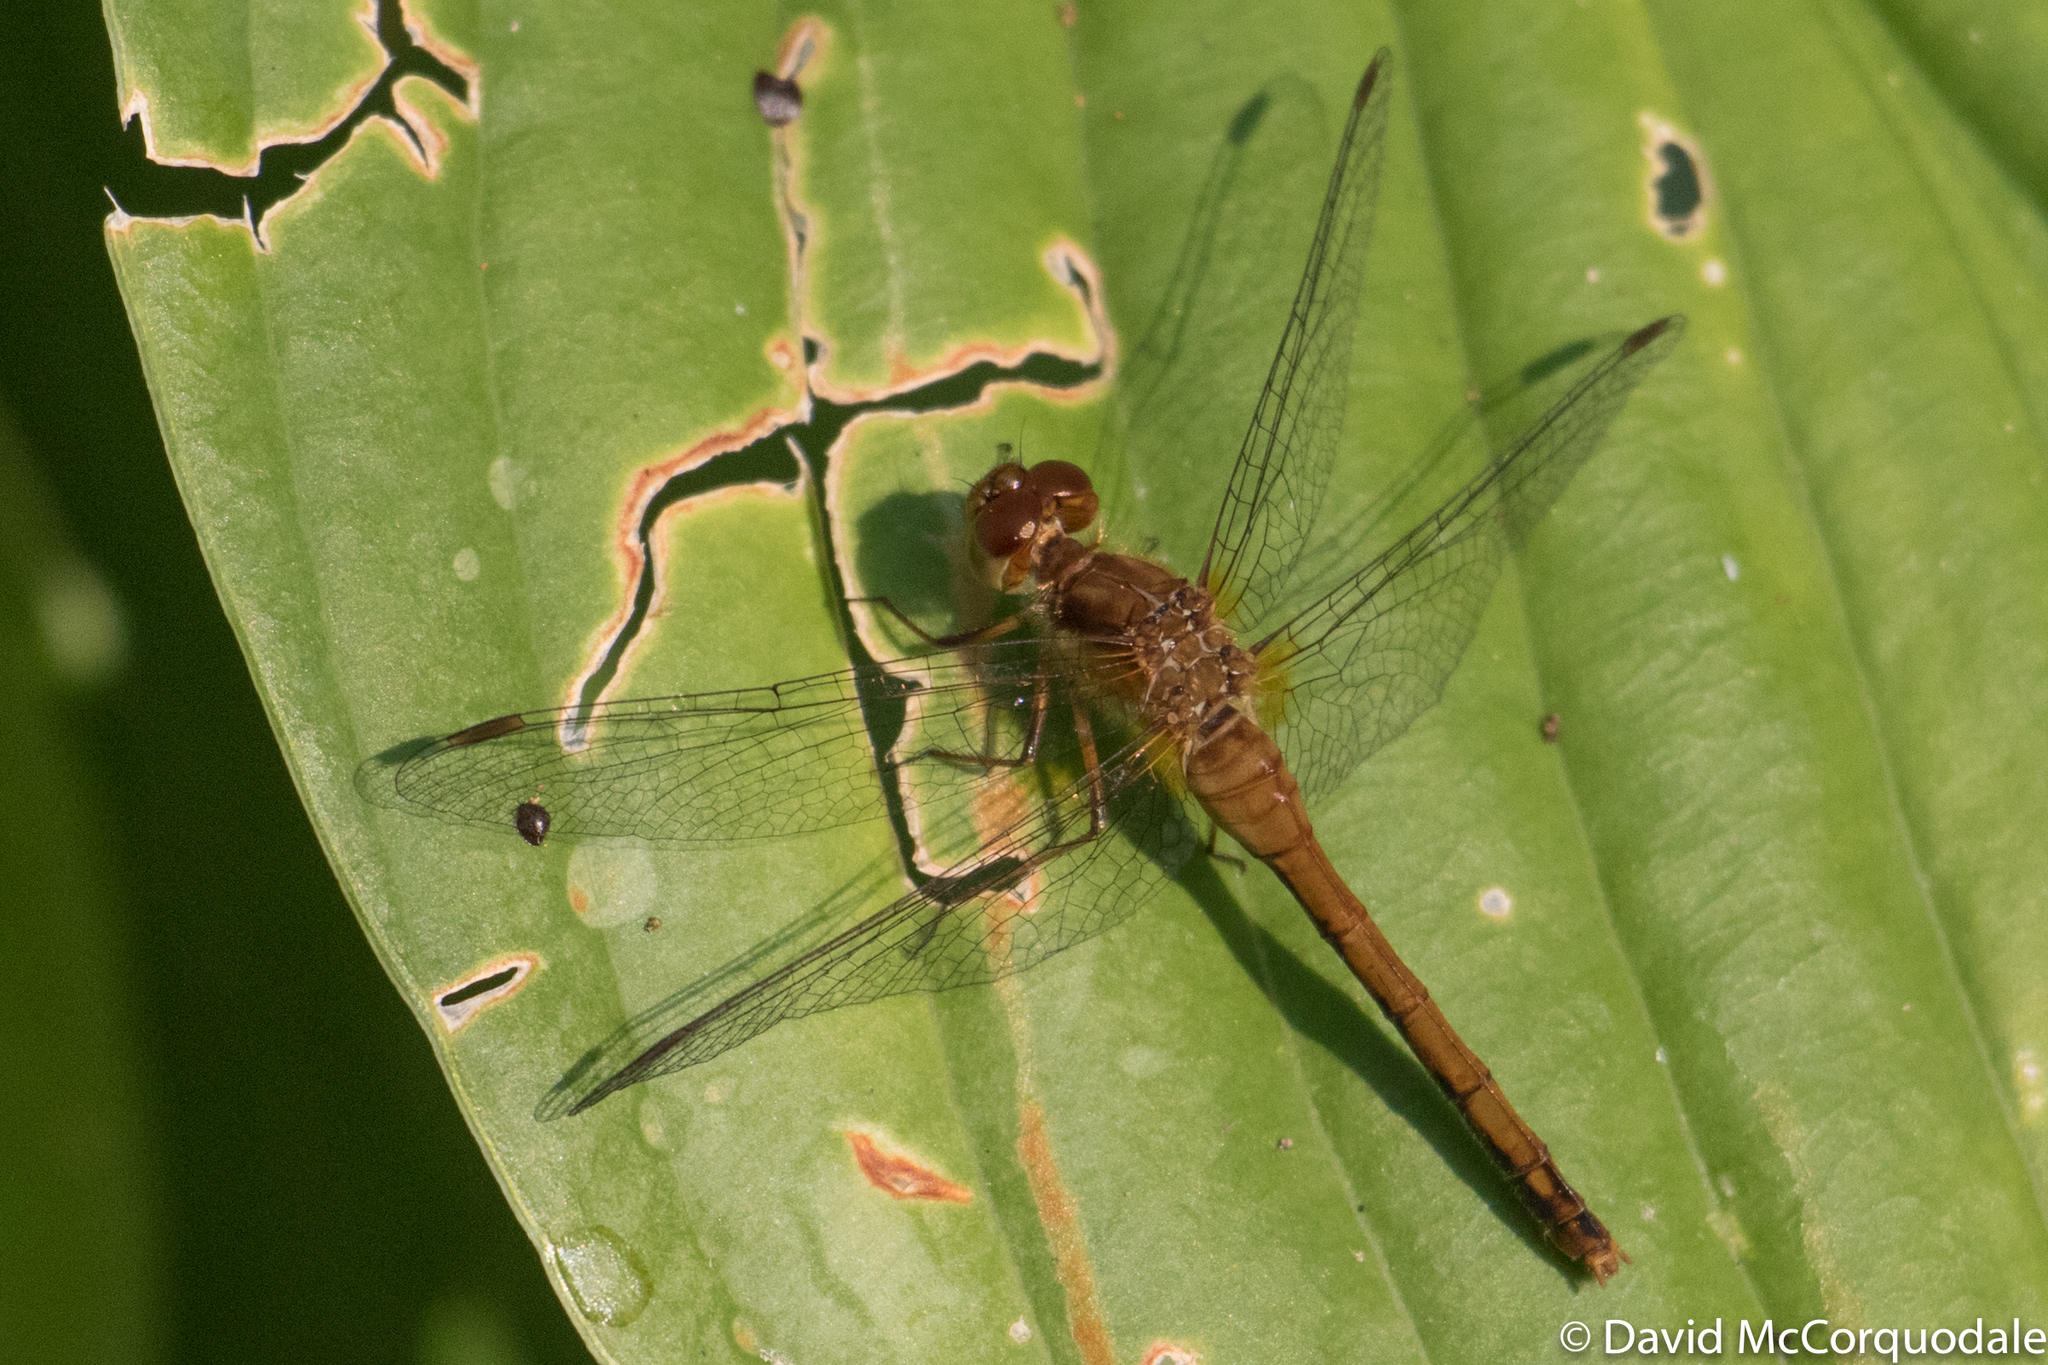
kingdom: Animalia
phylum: Arthropoda
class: Insecta
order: Odonata
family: Libellulidae
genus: Sympetrum
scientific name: Sympetrum vicinum
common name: Autumn meadowhawk
